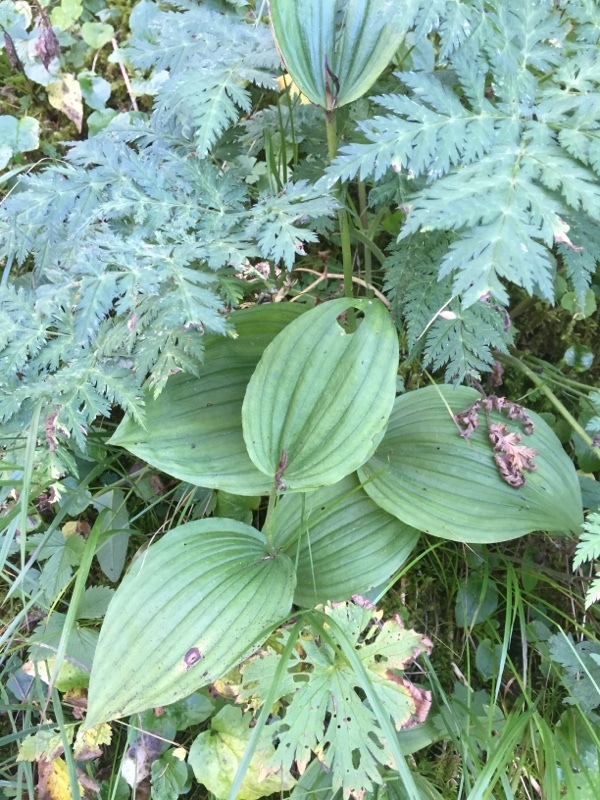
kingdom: Plantae
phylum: Tracheophyta
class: Liliopsida
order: Asparagales
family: Orchidaceae
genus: Cypripedium
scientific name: Cypripedium calceolus
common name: Lady's-slipper
